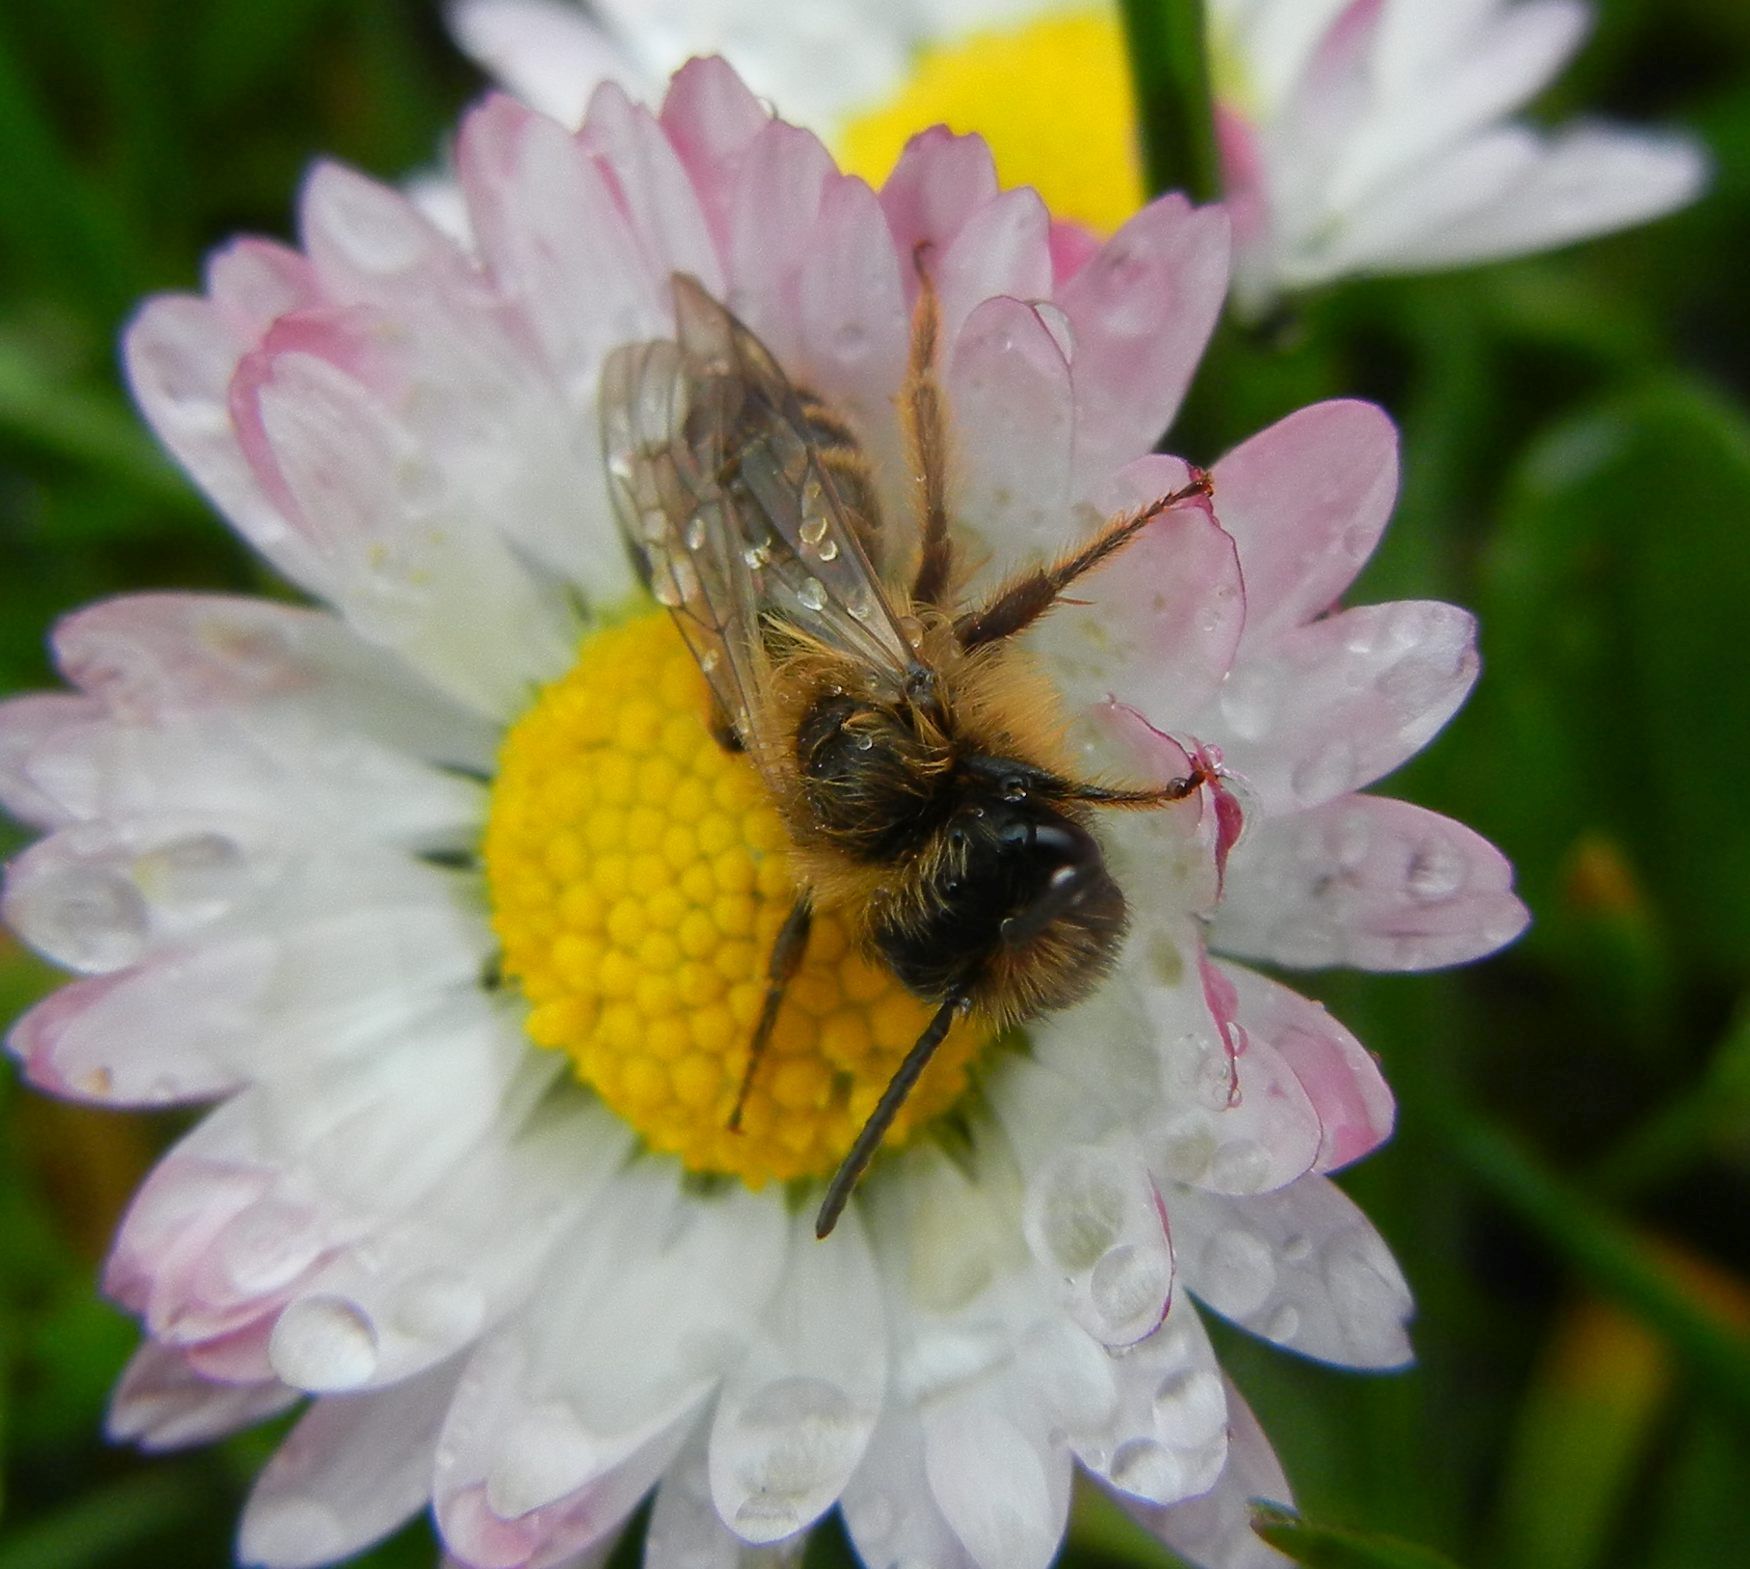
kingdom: Animalia
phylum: Arthropoda
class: Insecta
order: Hymenoptera
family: Andrenidae
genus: Andrena
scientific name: Andrena flavipes
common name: Yellow-legged mining bee
